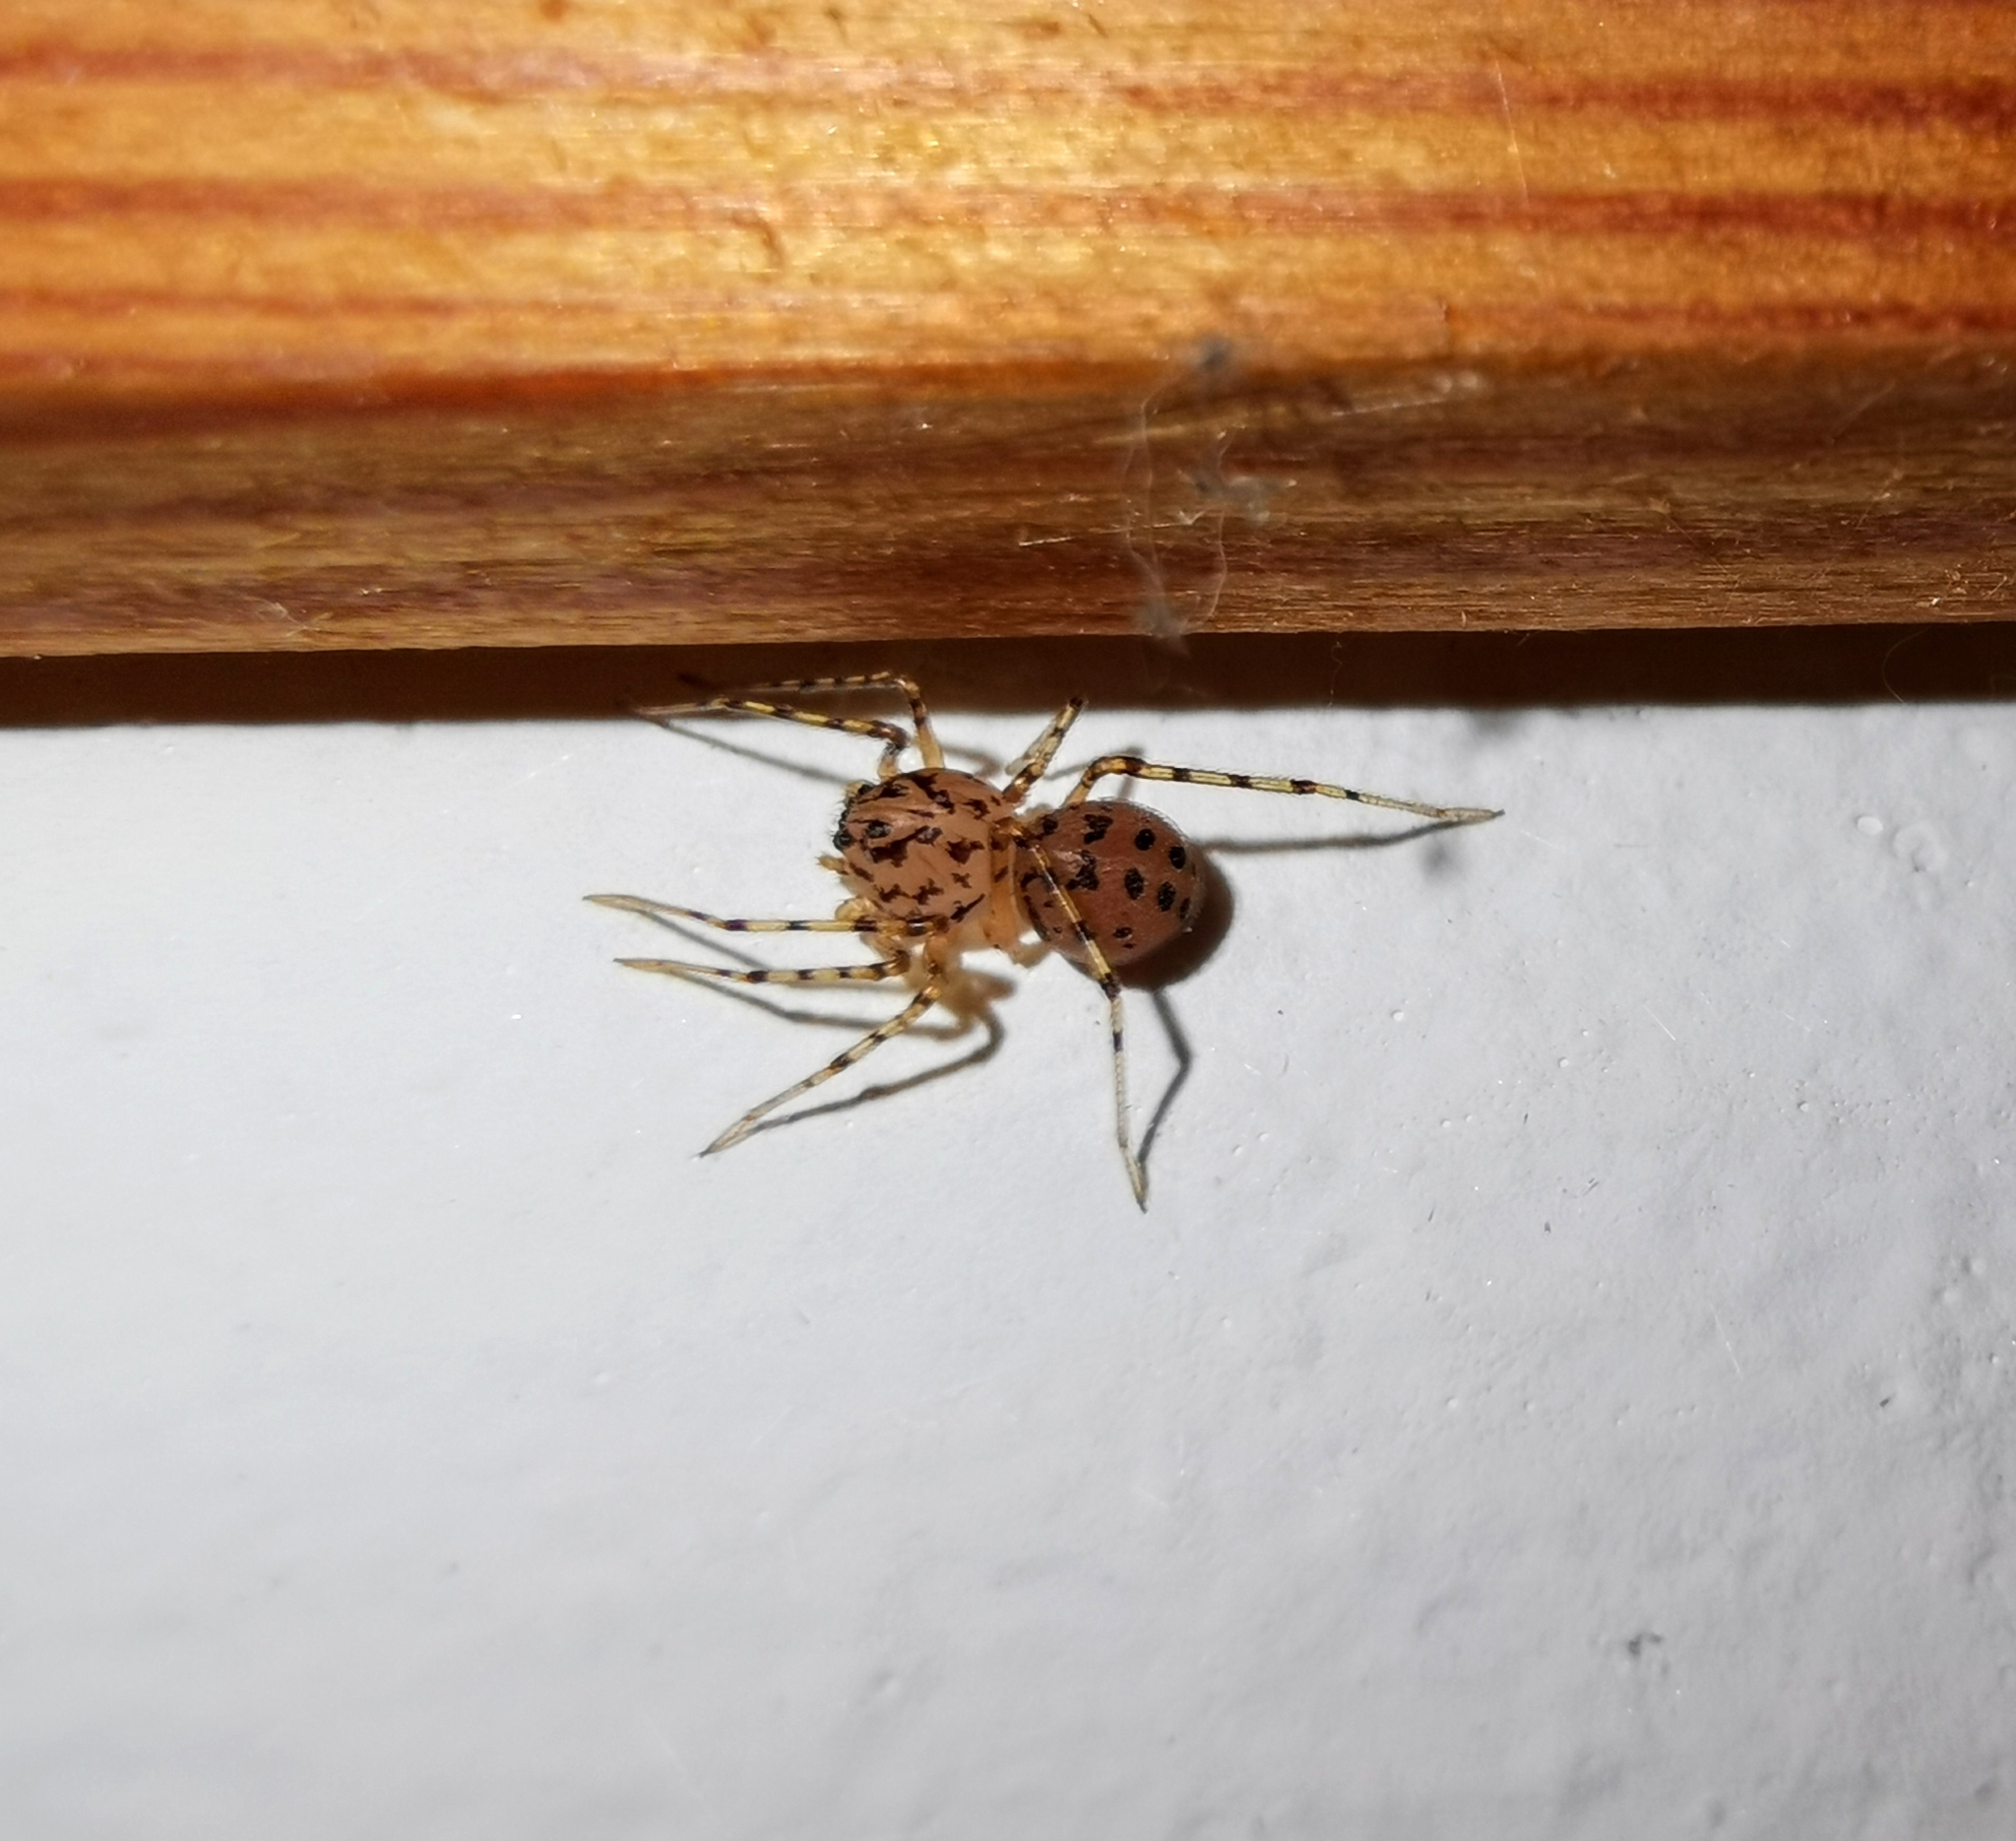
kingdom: Animalia
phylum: Arthropoda
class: Arachnida
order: Araneae
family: Scytodidae
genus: Scytodes
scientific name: Scytodes thoracica
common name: Spitting spider
